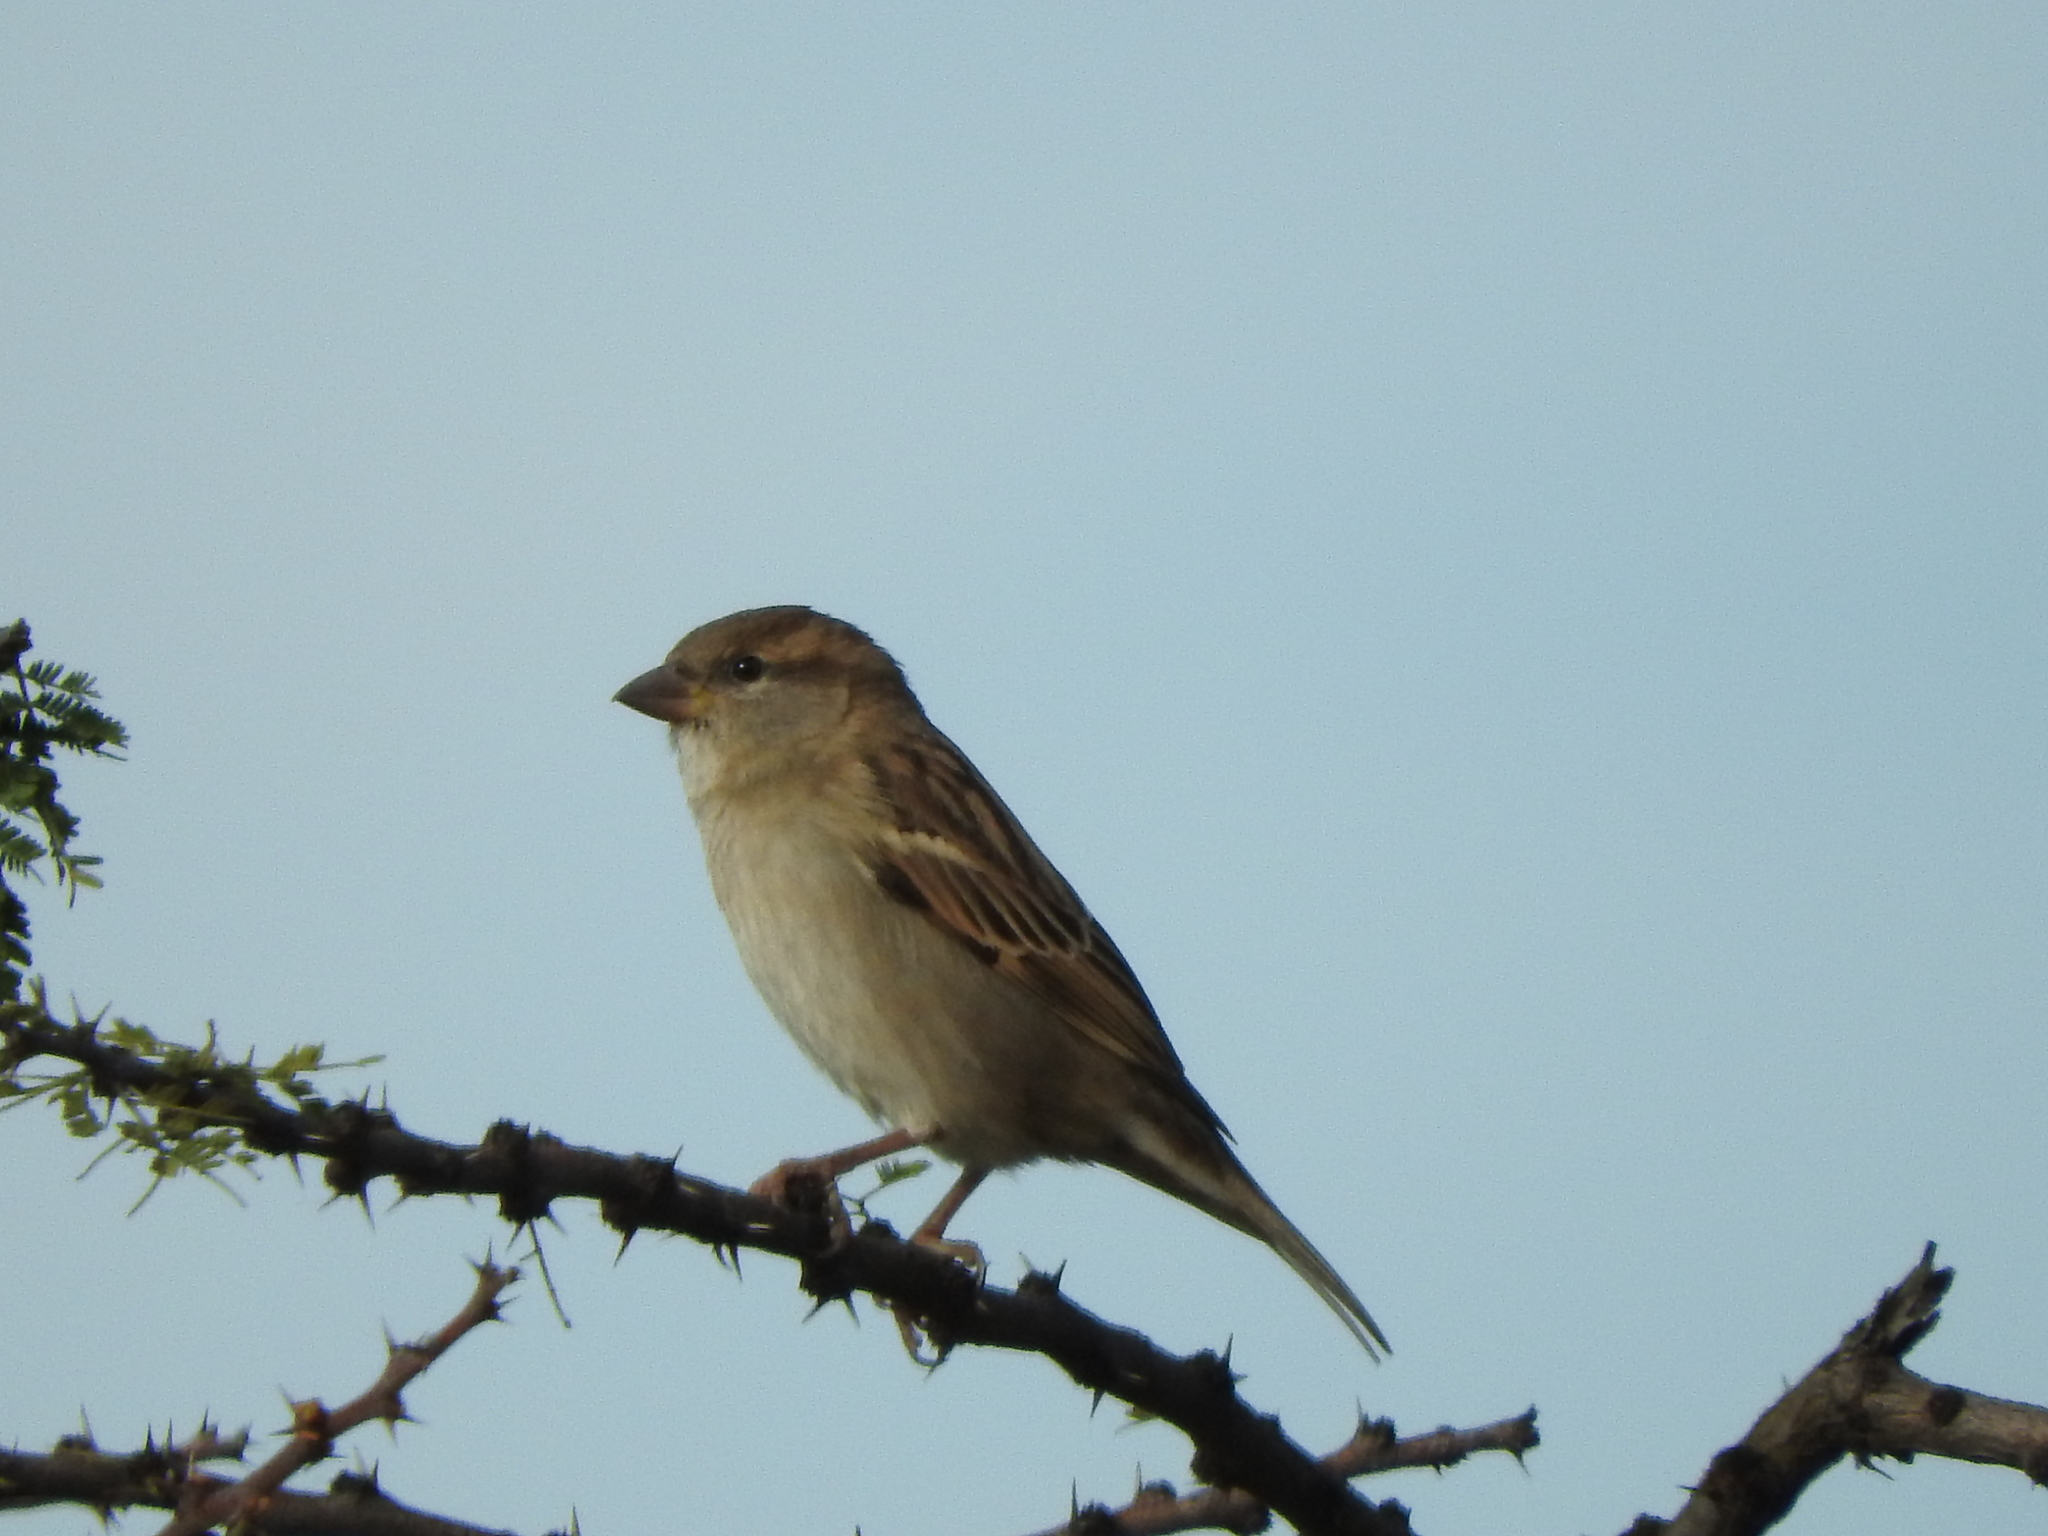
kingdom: Animalia
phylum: Chordata
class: Aves
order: Passeriformes
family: Passeridae
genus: Passer
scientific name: Passer domesticus
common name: House sparrow
